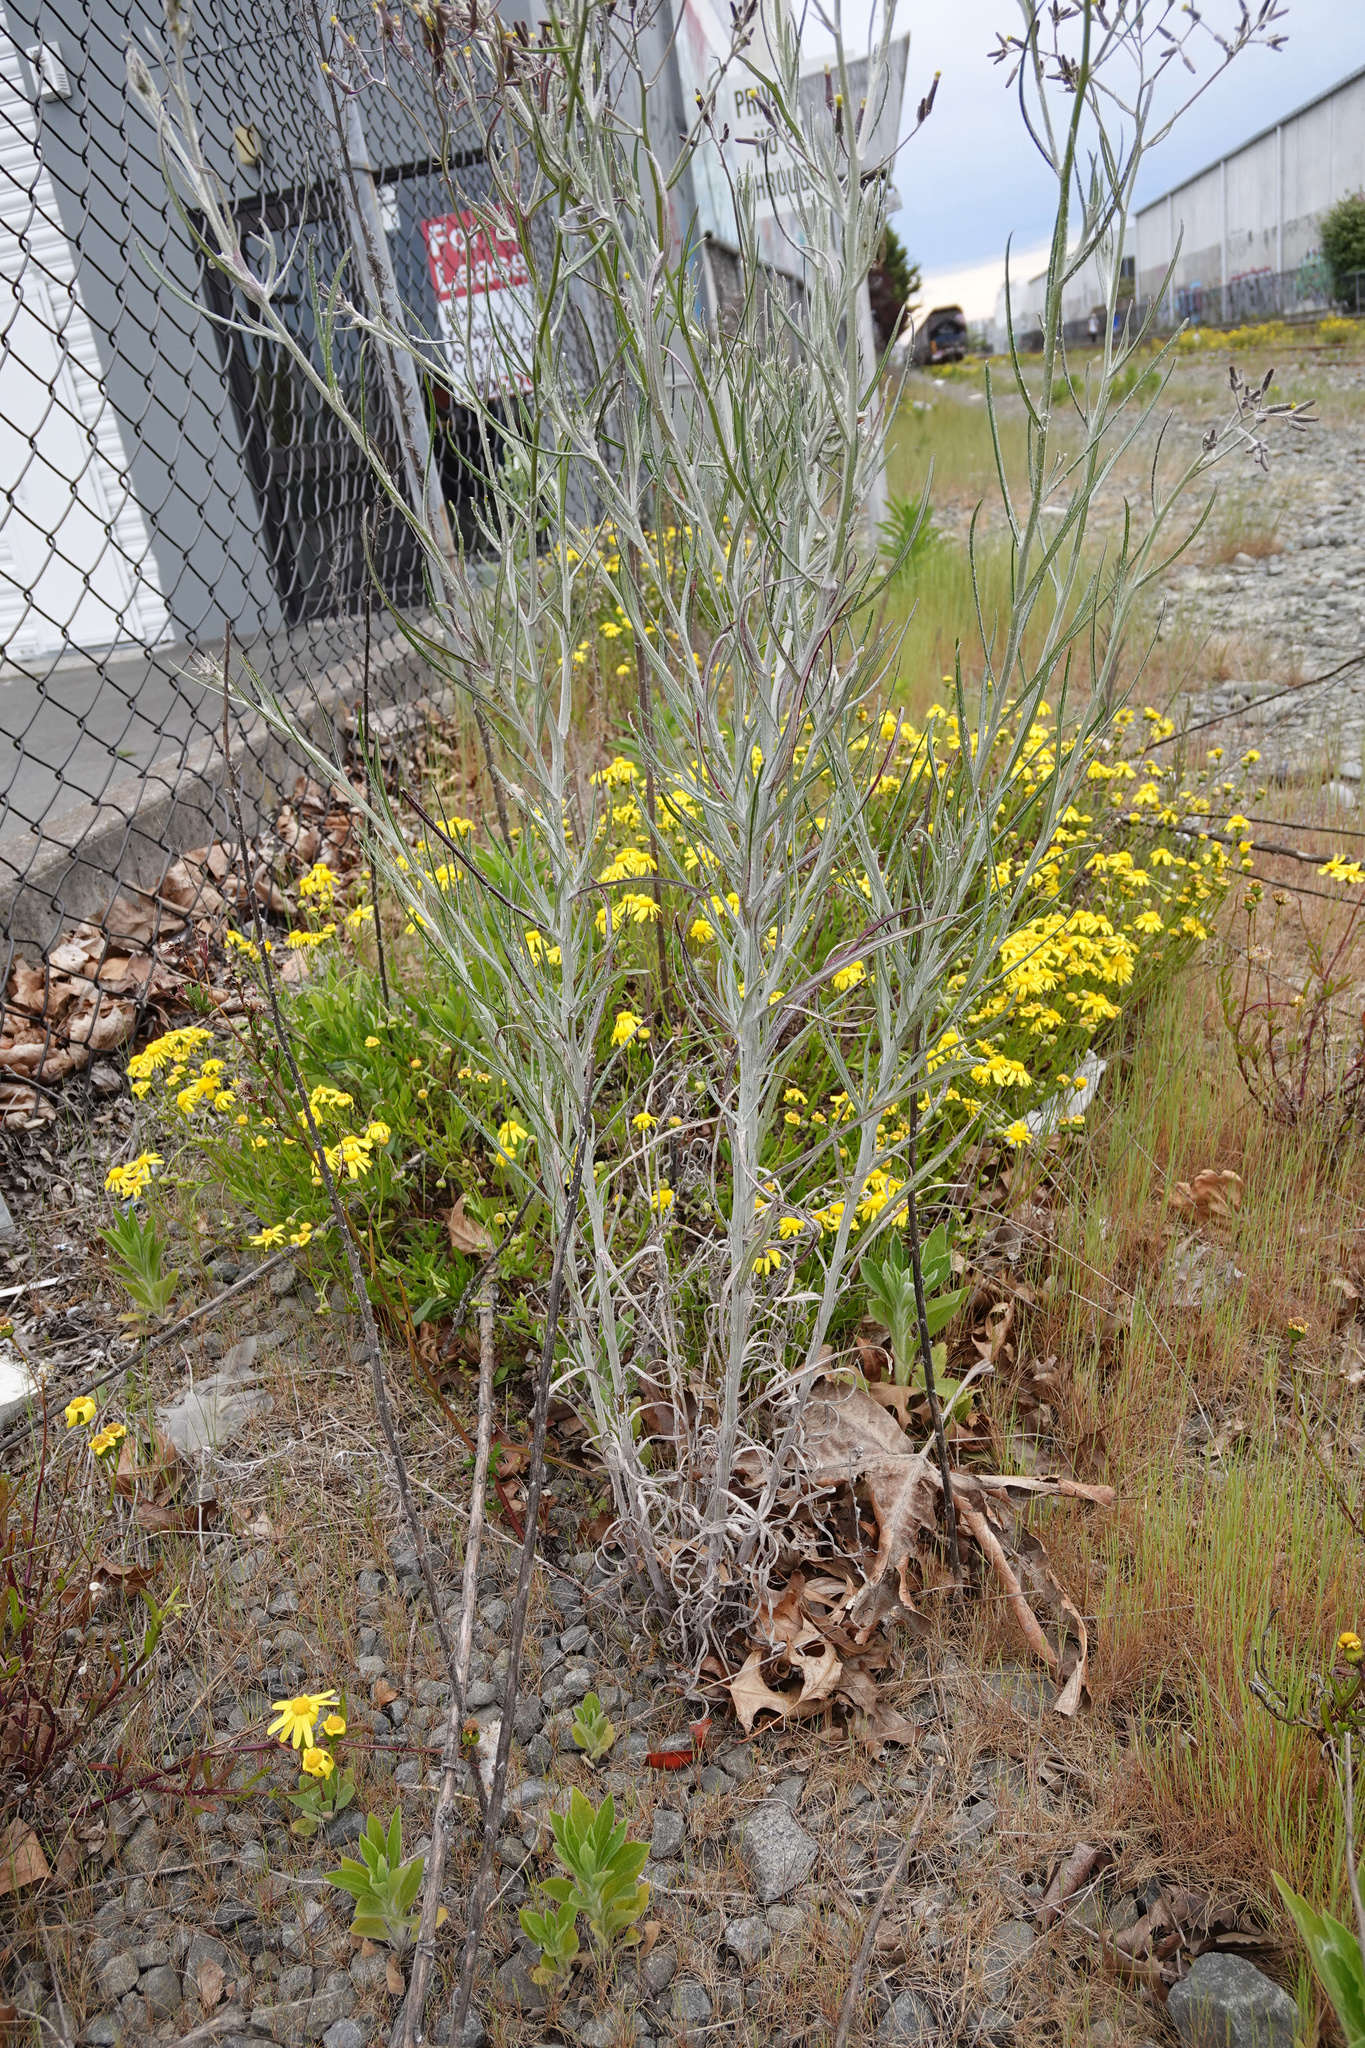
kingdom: Plantae
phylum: Tracheophyta
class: Magnoliopsida
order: Asterales
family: Asteraceae
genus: Senecio
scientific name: Senecio quadridentatus
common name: Cotton fireweed
